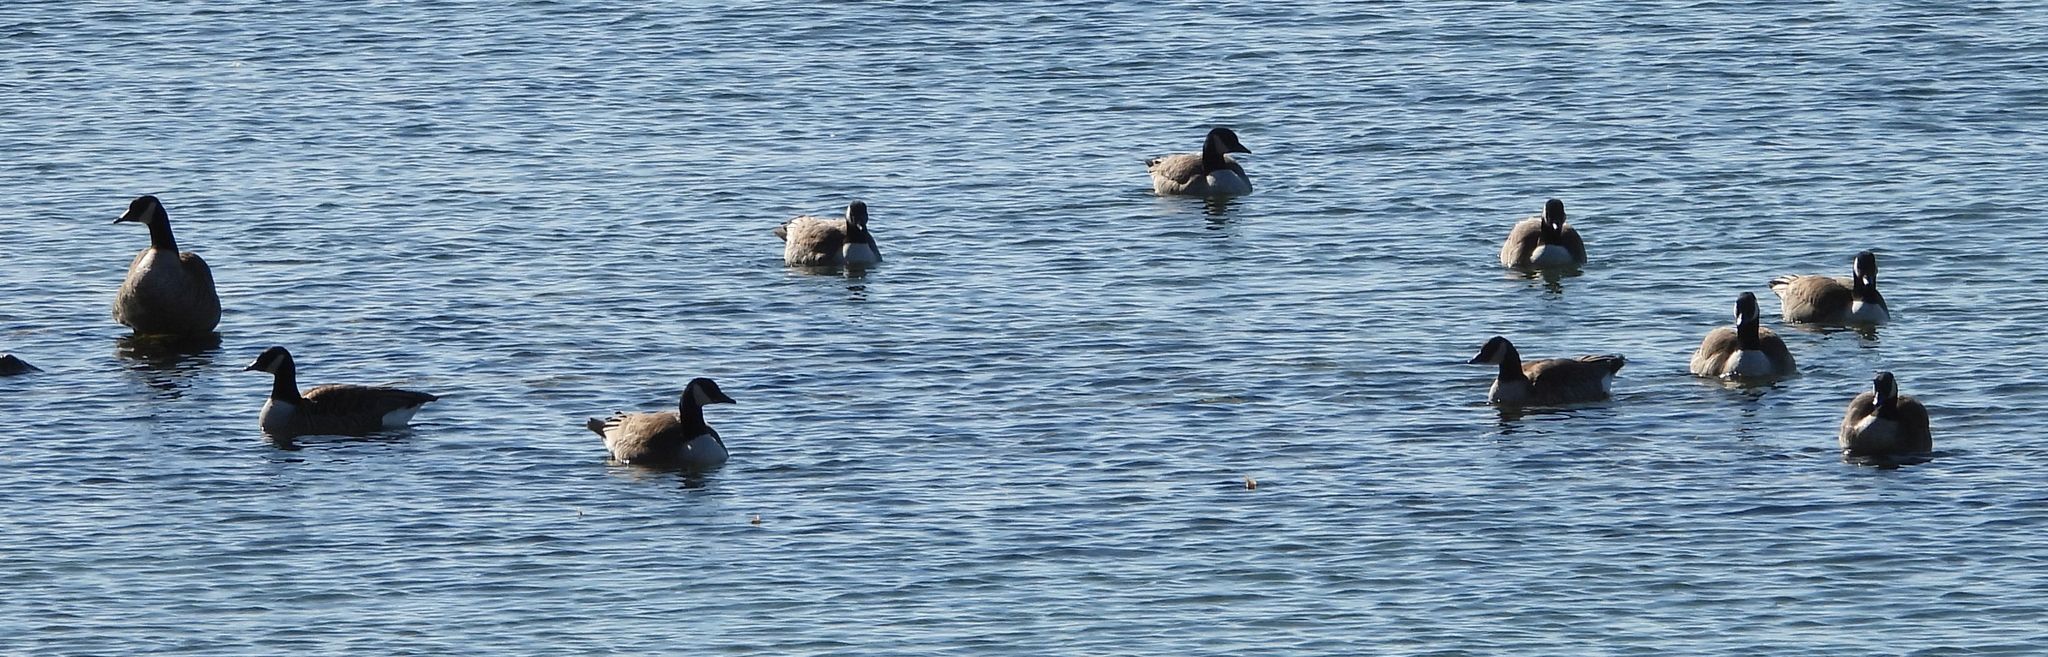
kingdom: Animalia
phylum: Chordata
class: Aves
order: Anseriformes
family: Anatidae
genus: Branta
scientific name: Branta canadensis
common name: Canada goose
